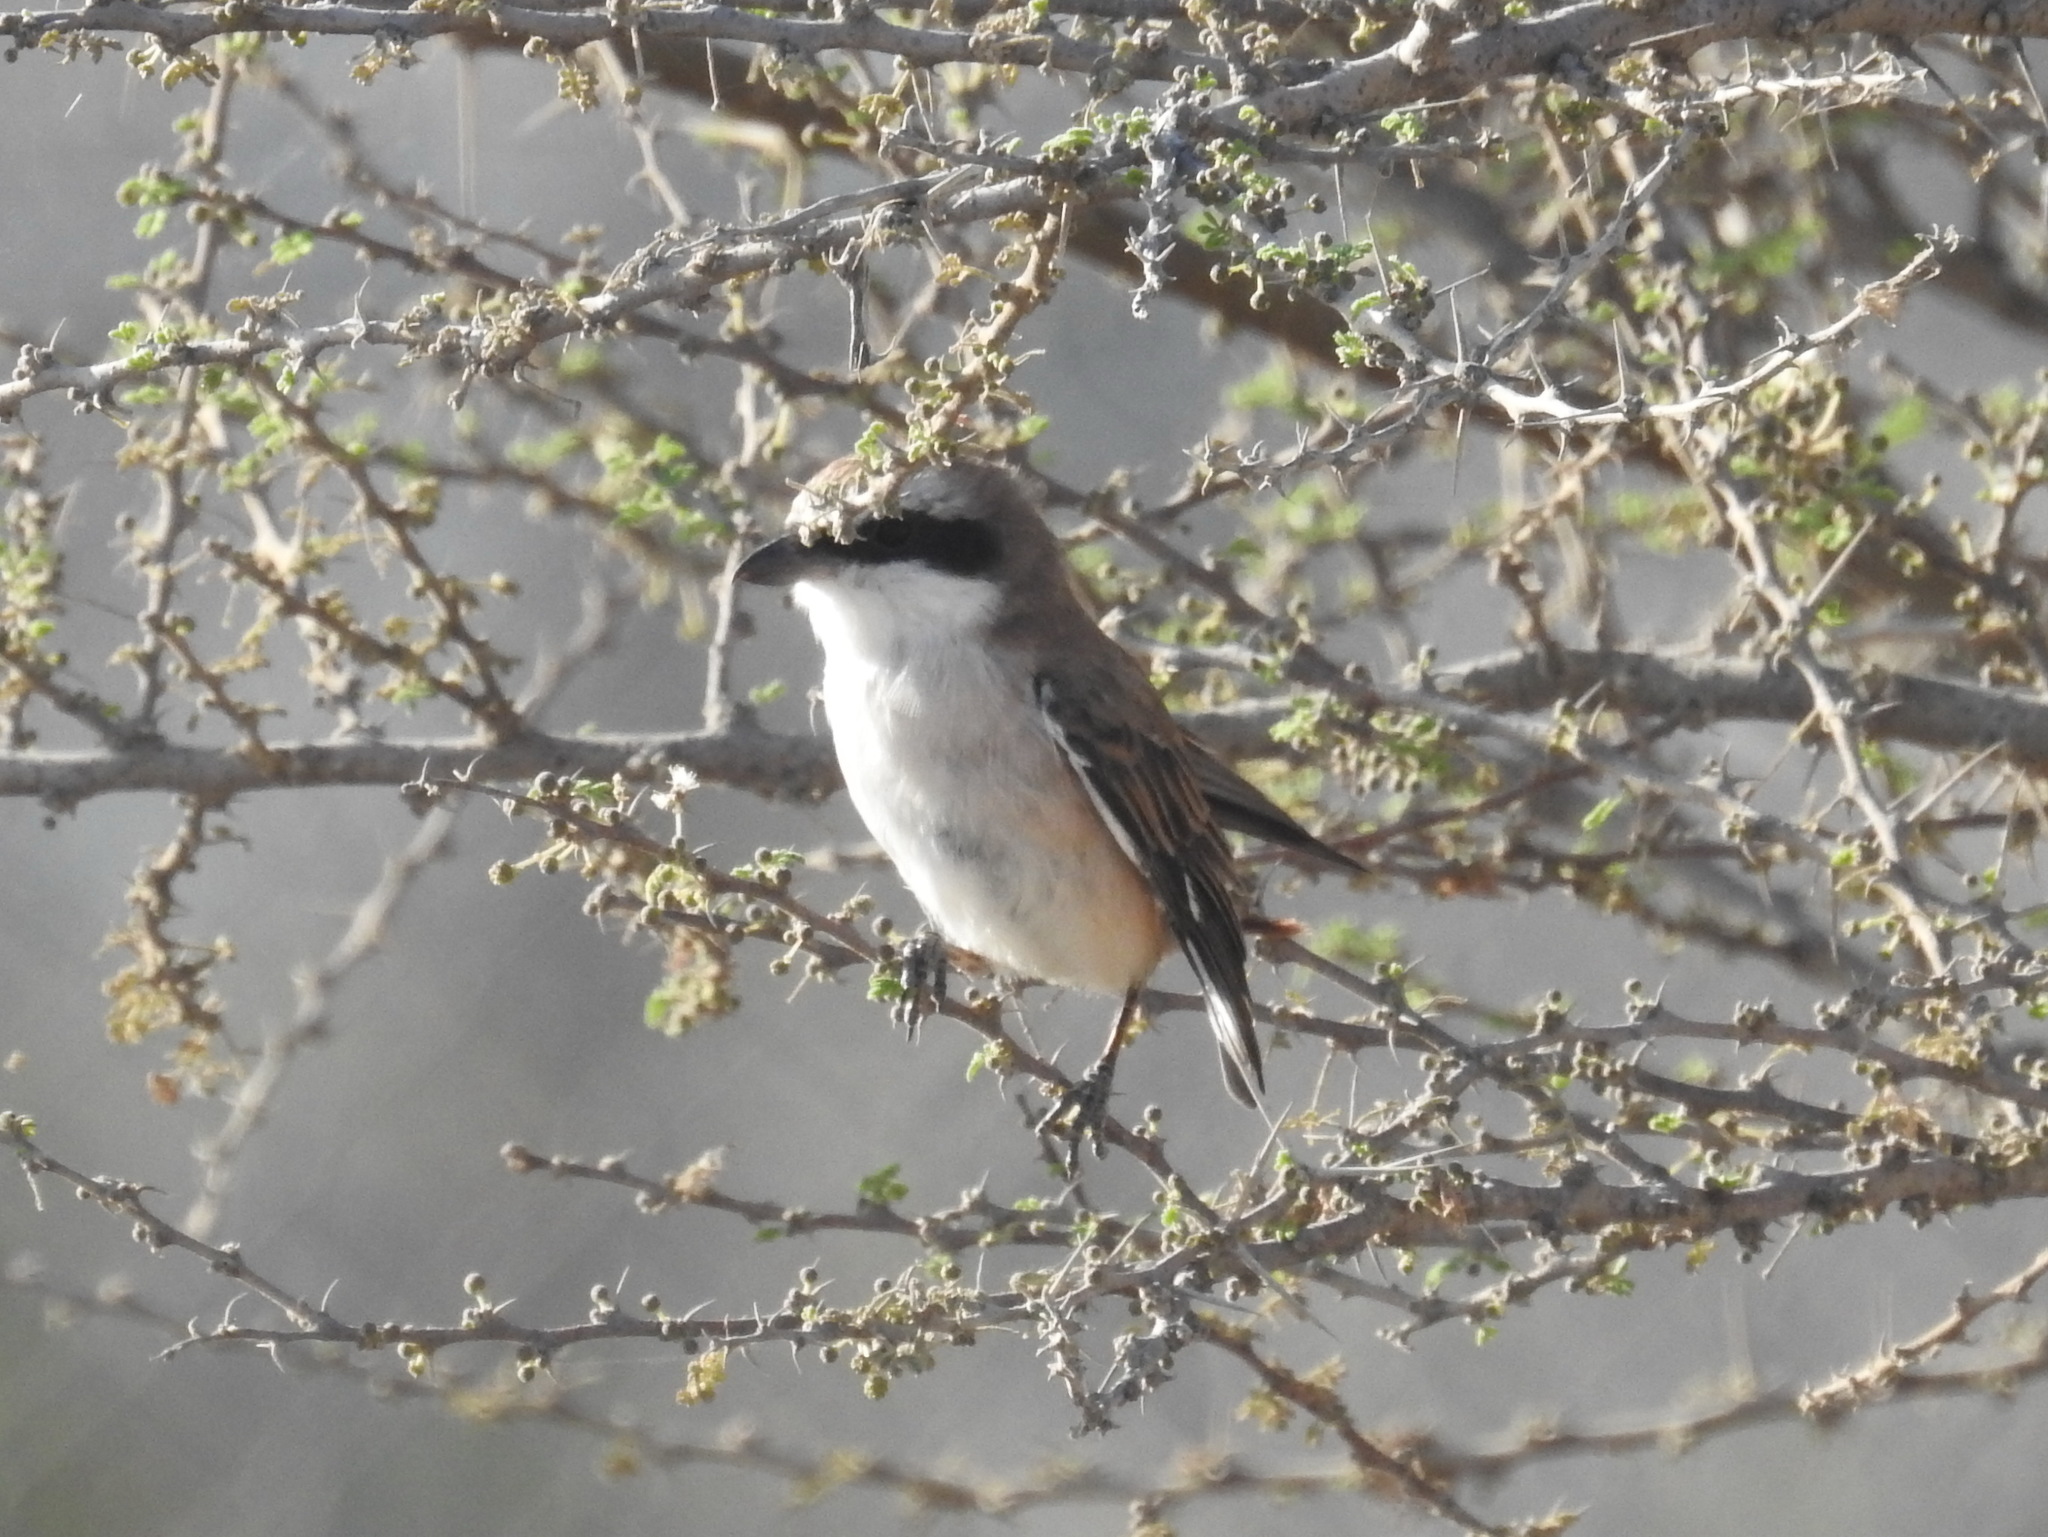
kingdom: Animalia
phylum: Chordata
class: Aves
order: Passeriformes
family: Laniidae
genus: Lanius
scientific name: Lanius phoenicuroides
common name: Red-tailed shrike
